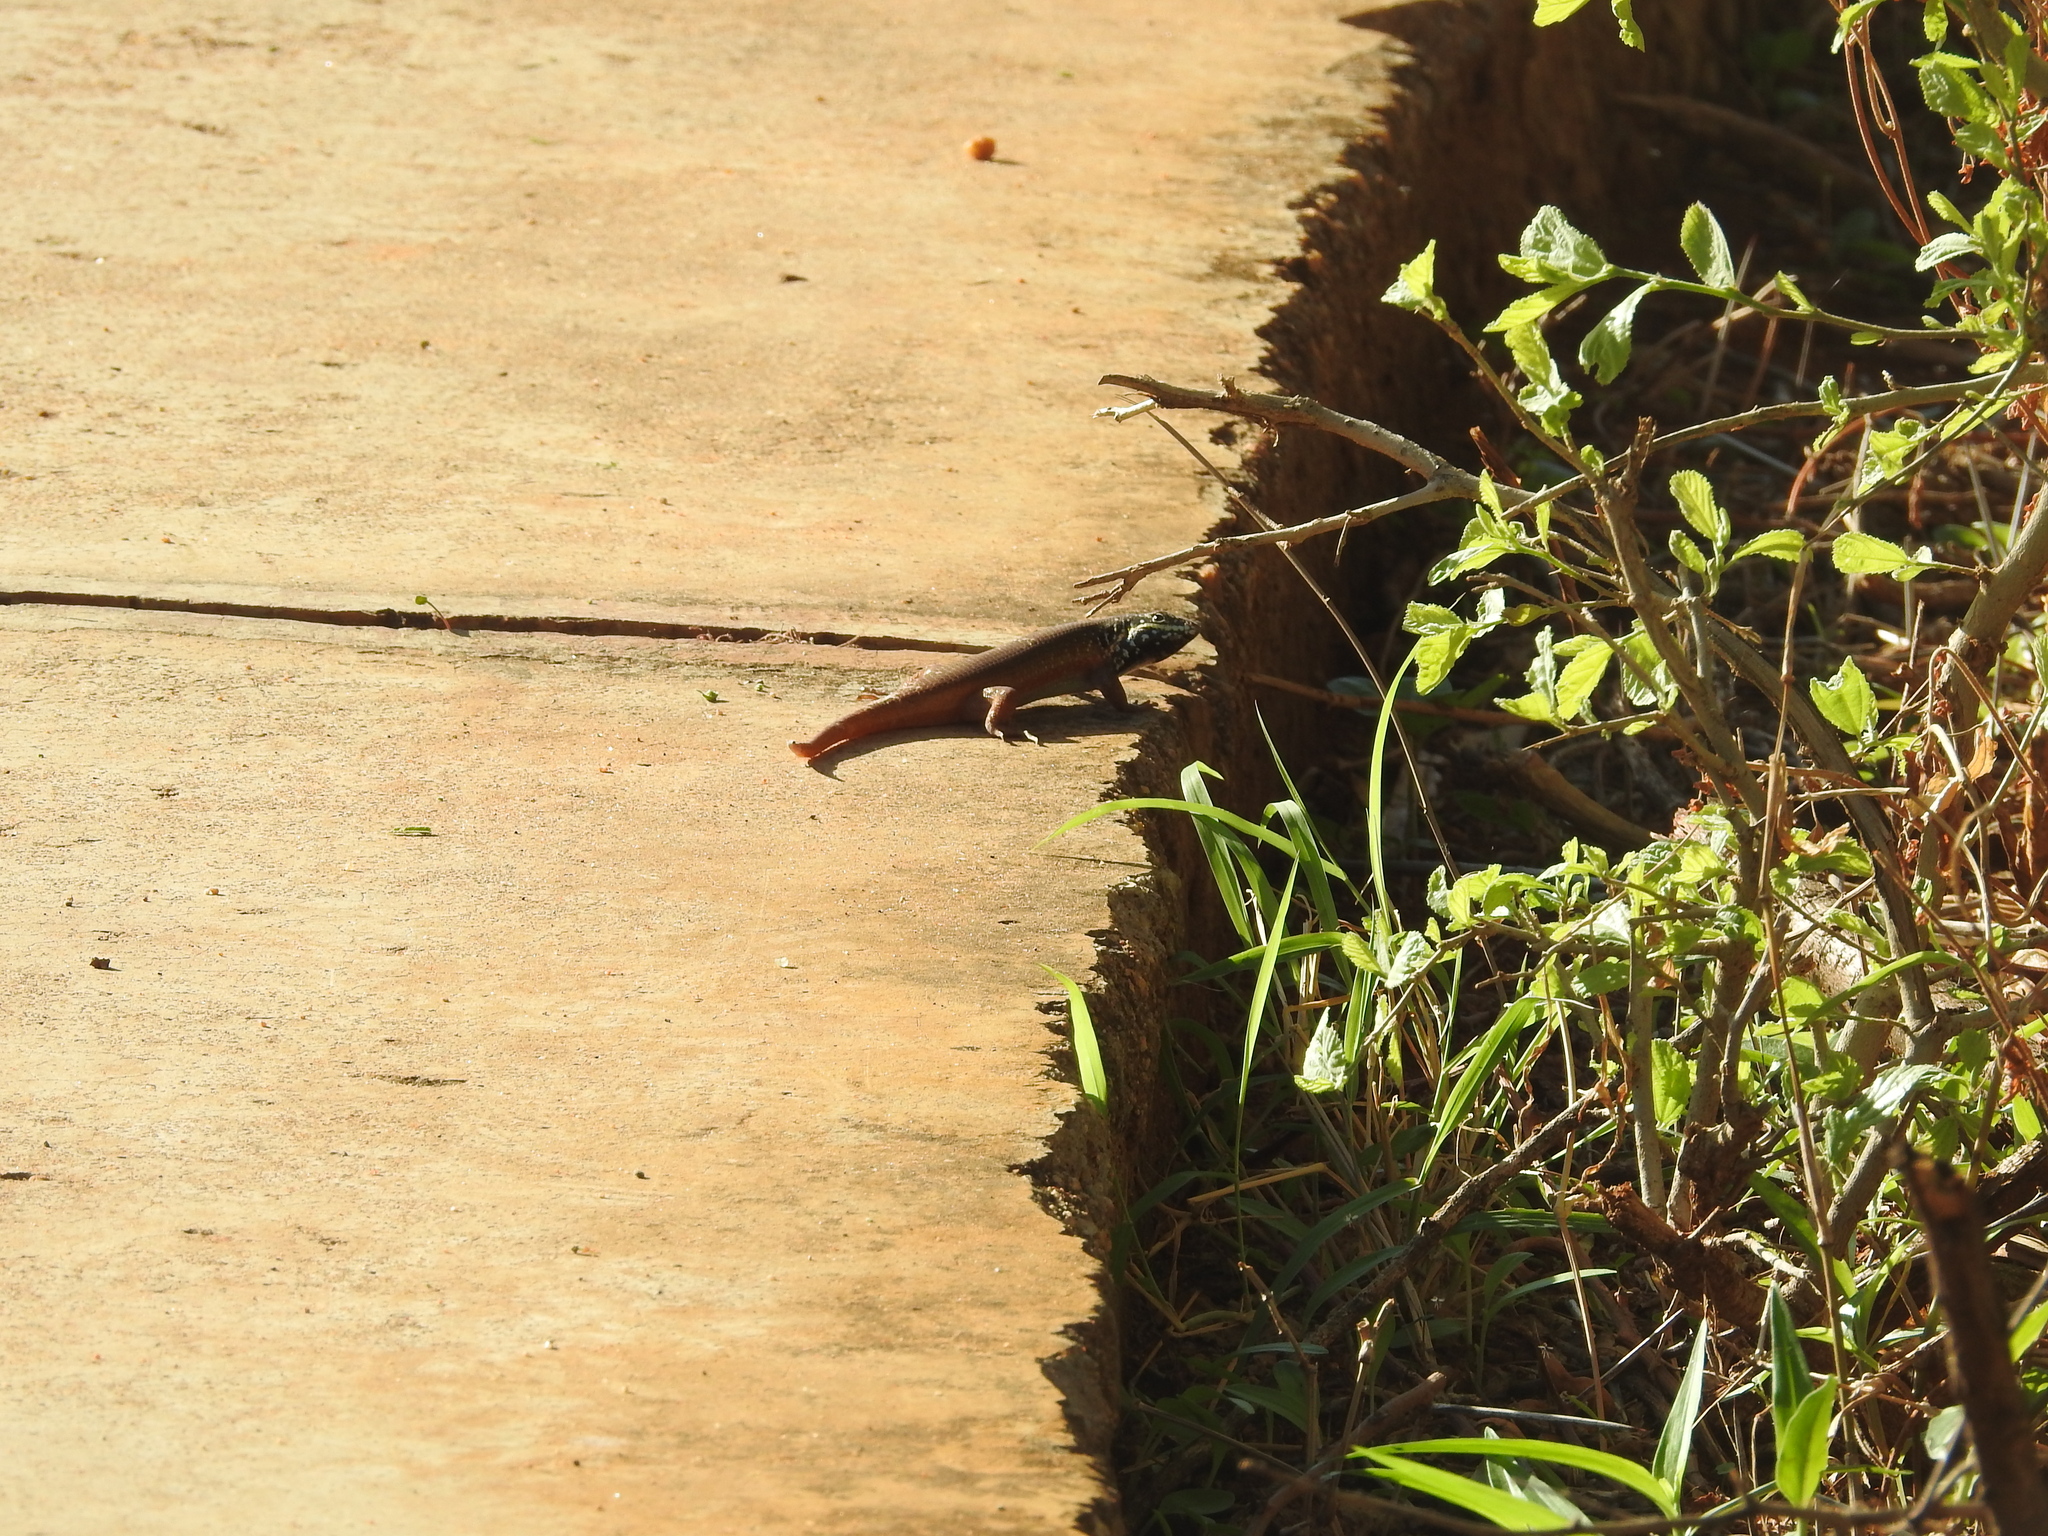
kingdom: Animalia
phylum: Chordata
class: Squamata
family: Scincidae
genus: Trachylepis
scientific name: Trachylepis quinquetaeniata
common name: African five-lined skink
